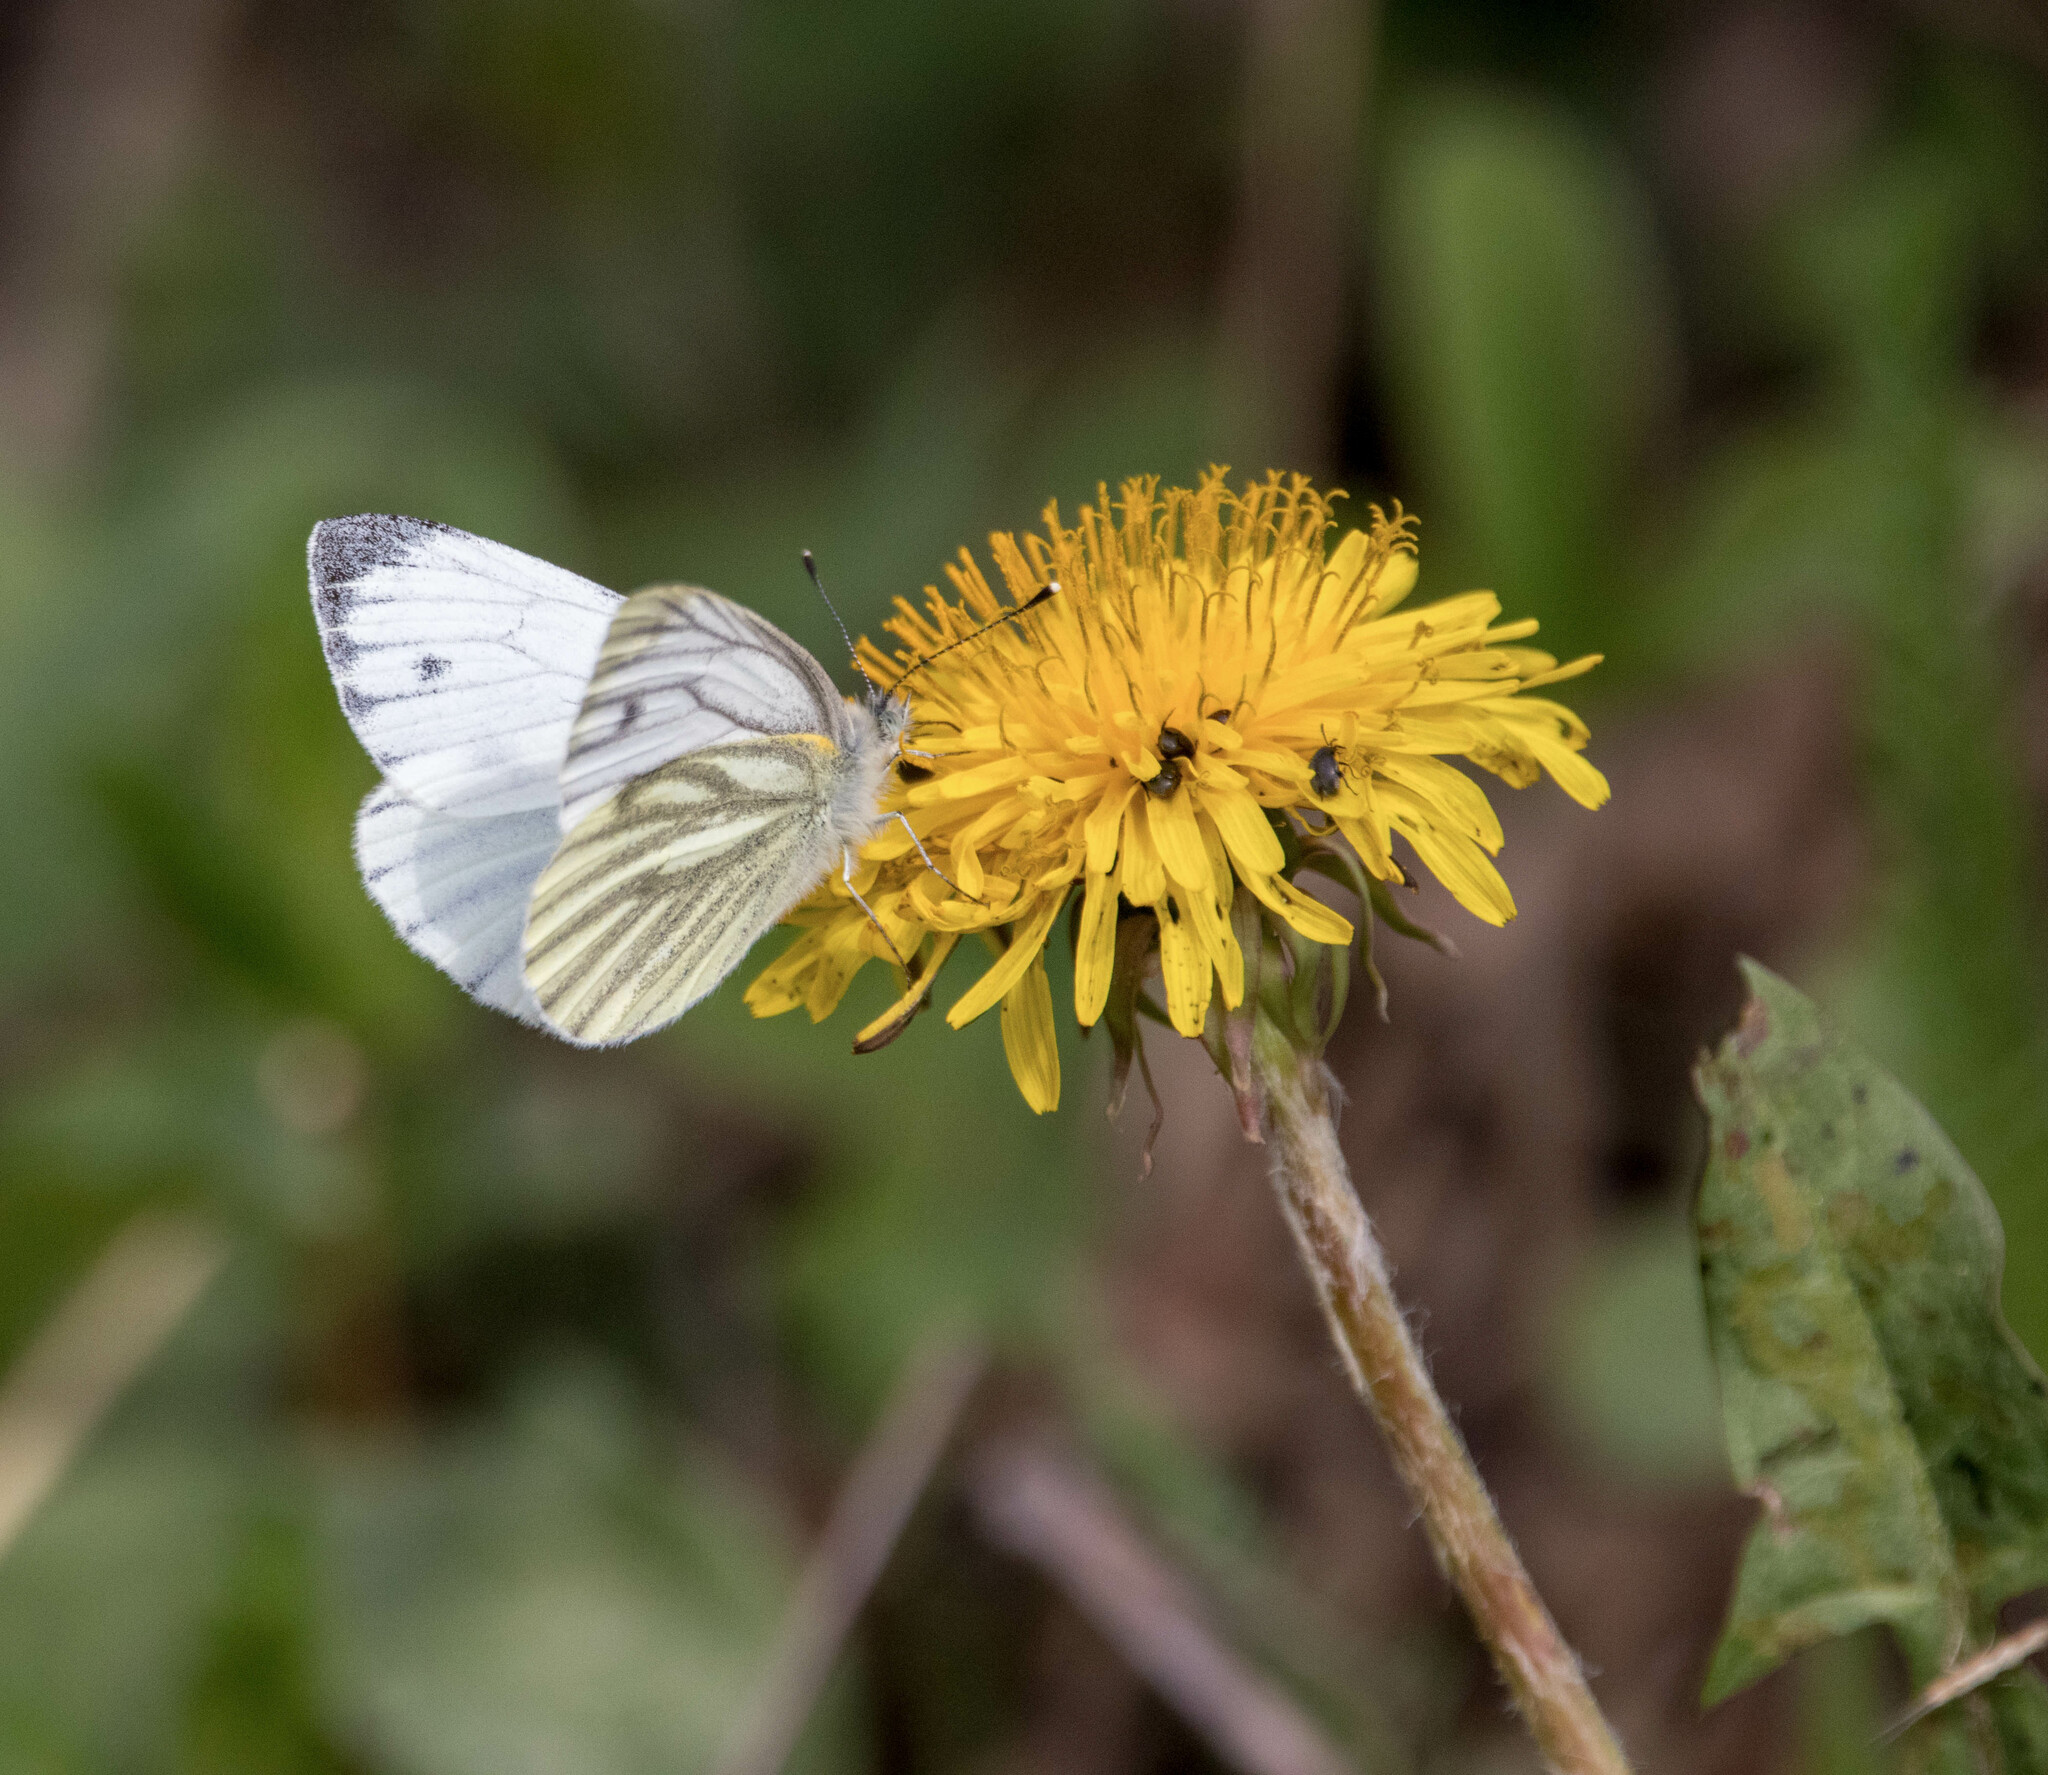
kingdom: Animalia
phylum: Arthropoda
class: Insecta
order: Lepidoptera
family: Pieridae
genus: Pieris
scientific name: Pieris napi
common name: Green-veined white
